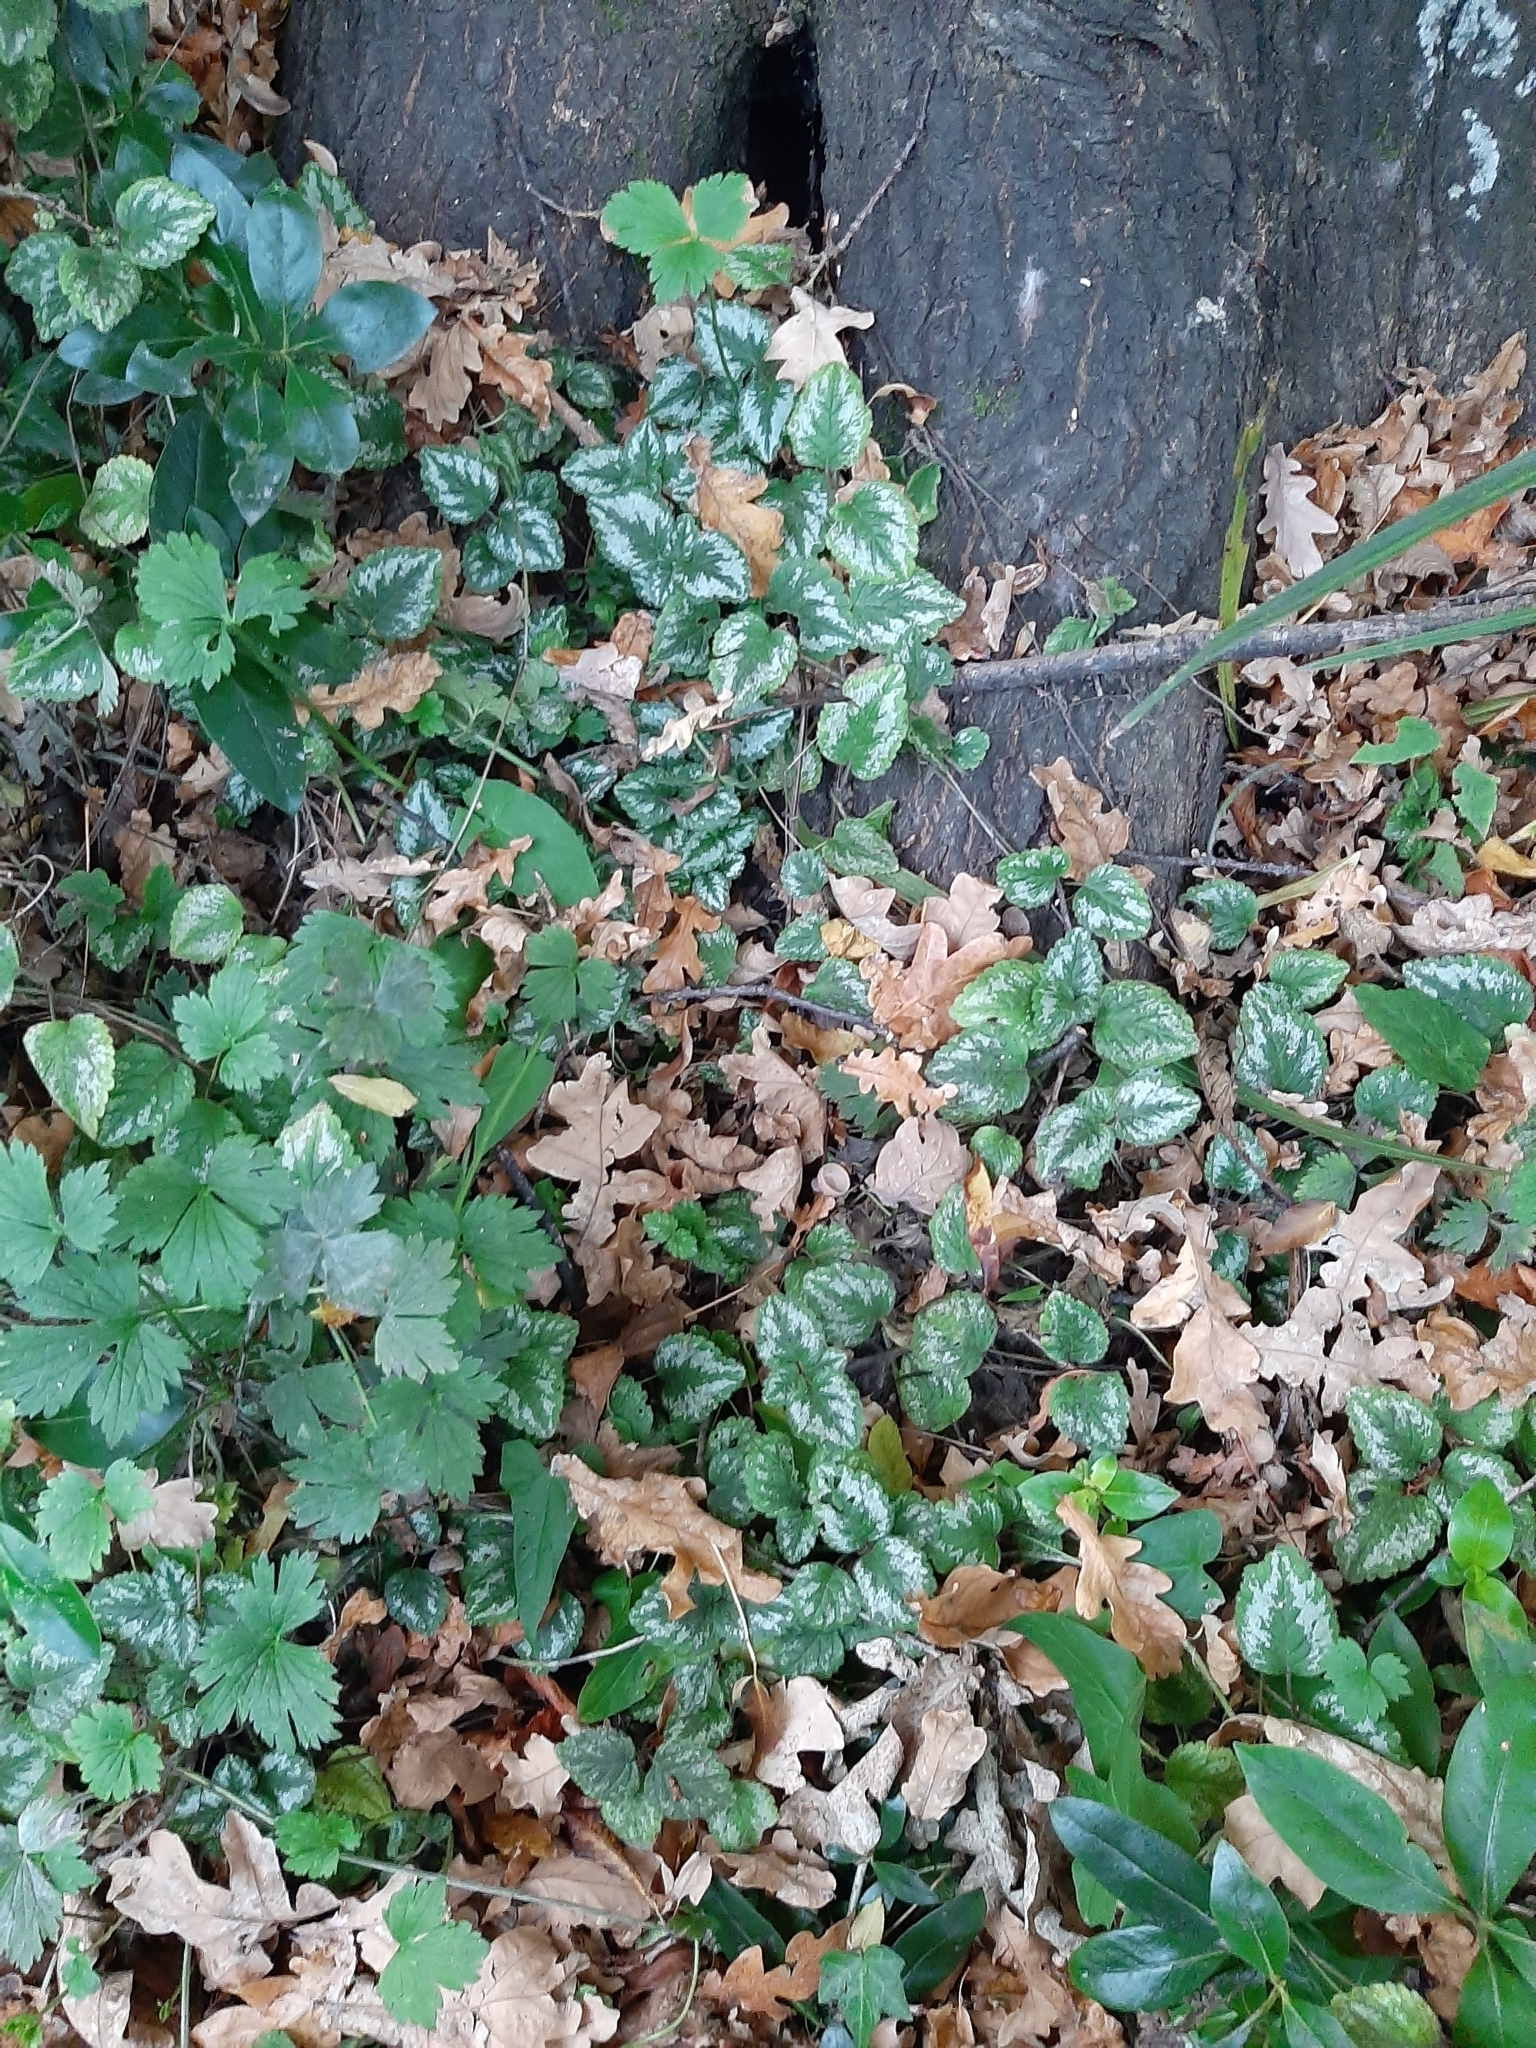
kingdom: Plantae
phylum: Tracheophyta
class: Magnoliopsida
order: Lamiales
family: Lamiaceae
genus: Lamium
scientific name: Lamium galeobdolon
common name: Yellow archangel
